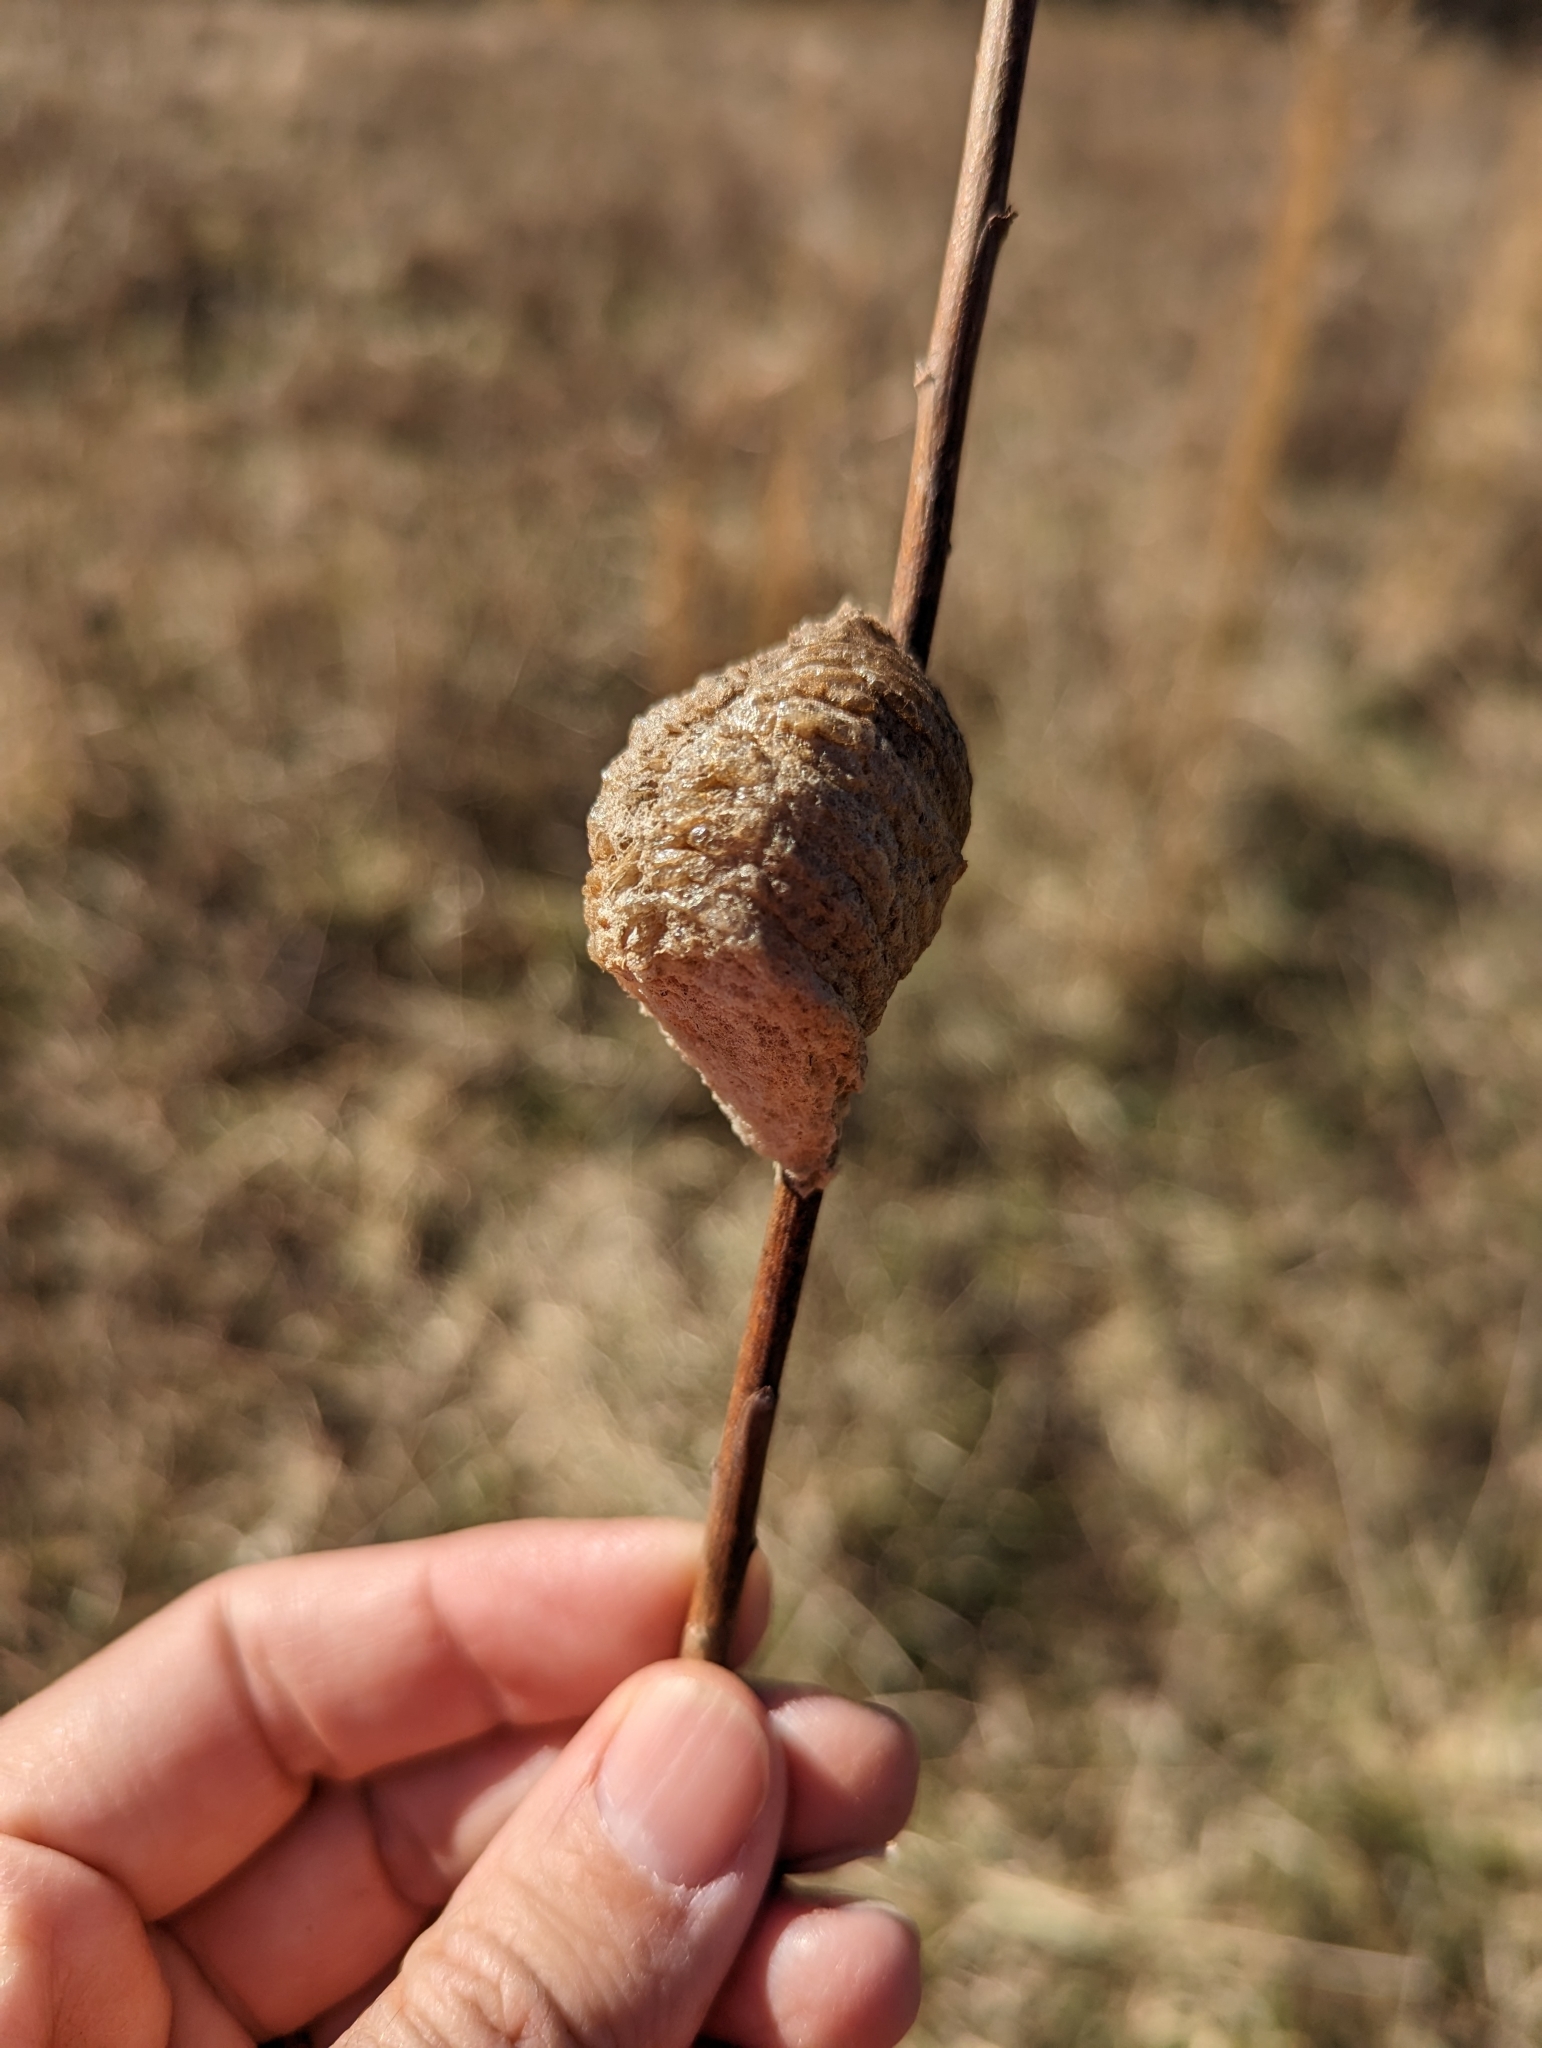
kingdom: Animalia
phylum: Arthropoda
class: Insecta
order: Mantodea
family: Mantidae
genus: Tenodera
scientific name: Tenodera sinensis
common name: Chinese mantis
